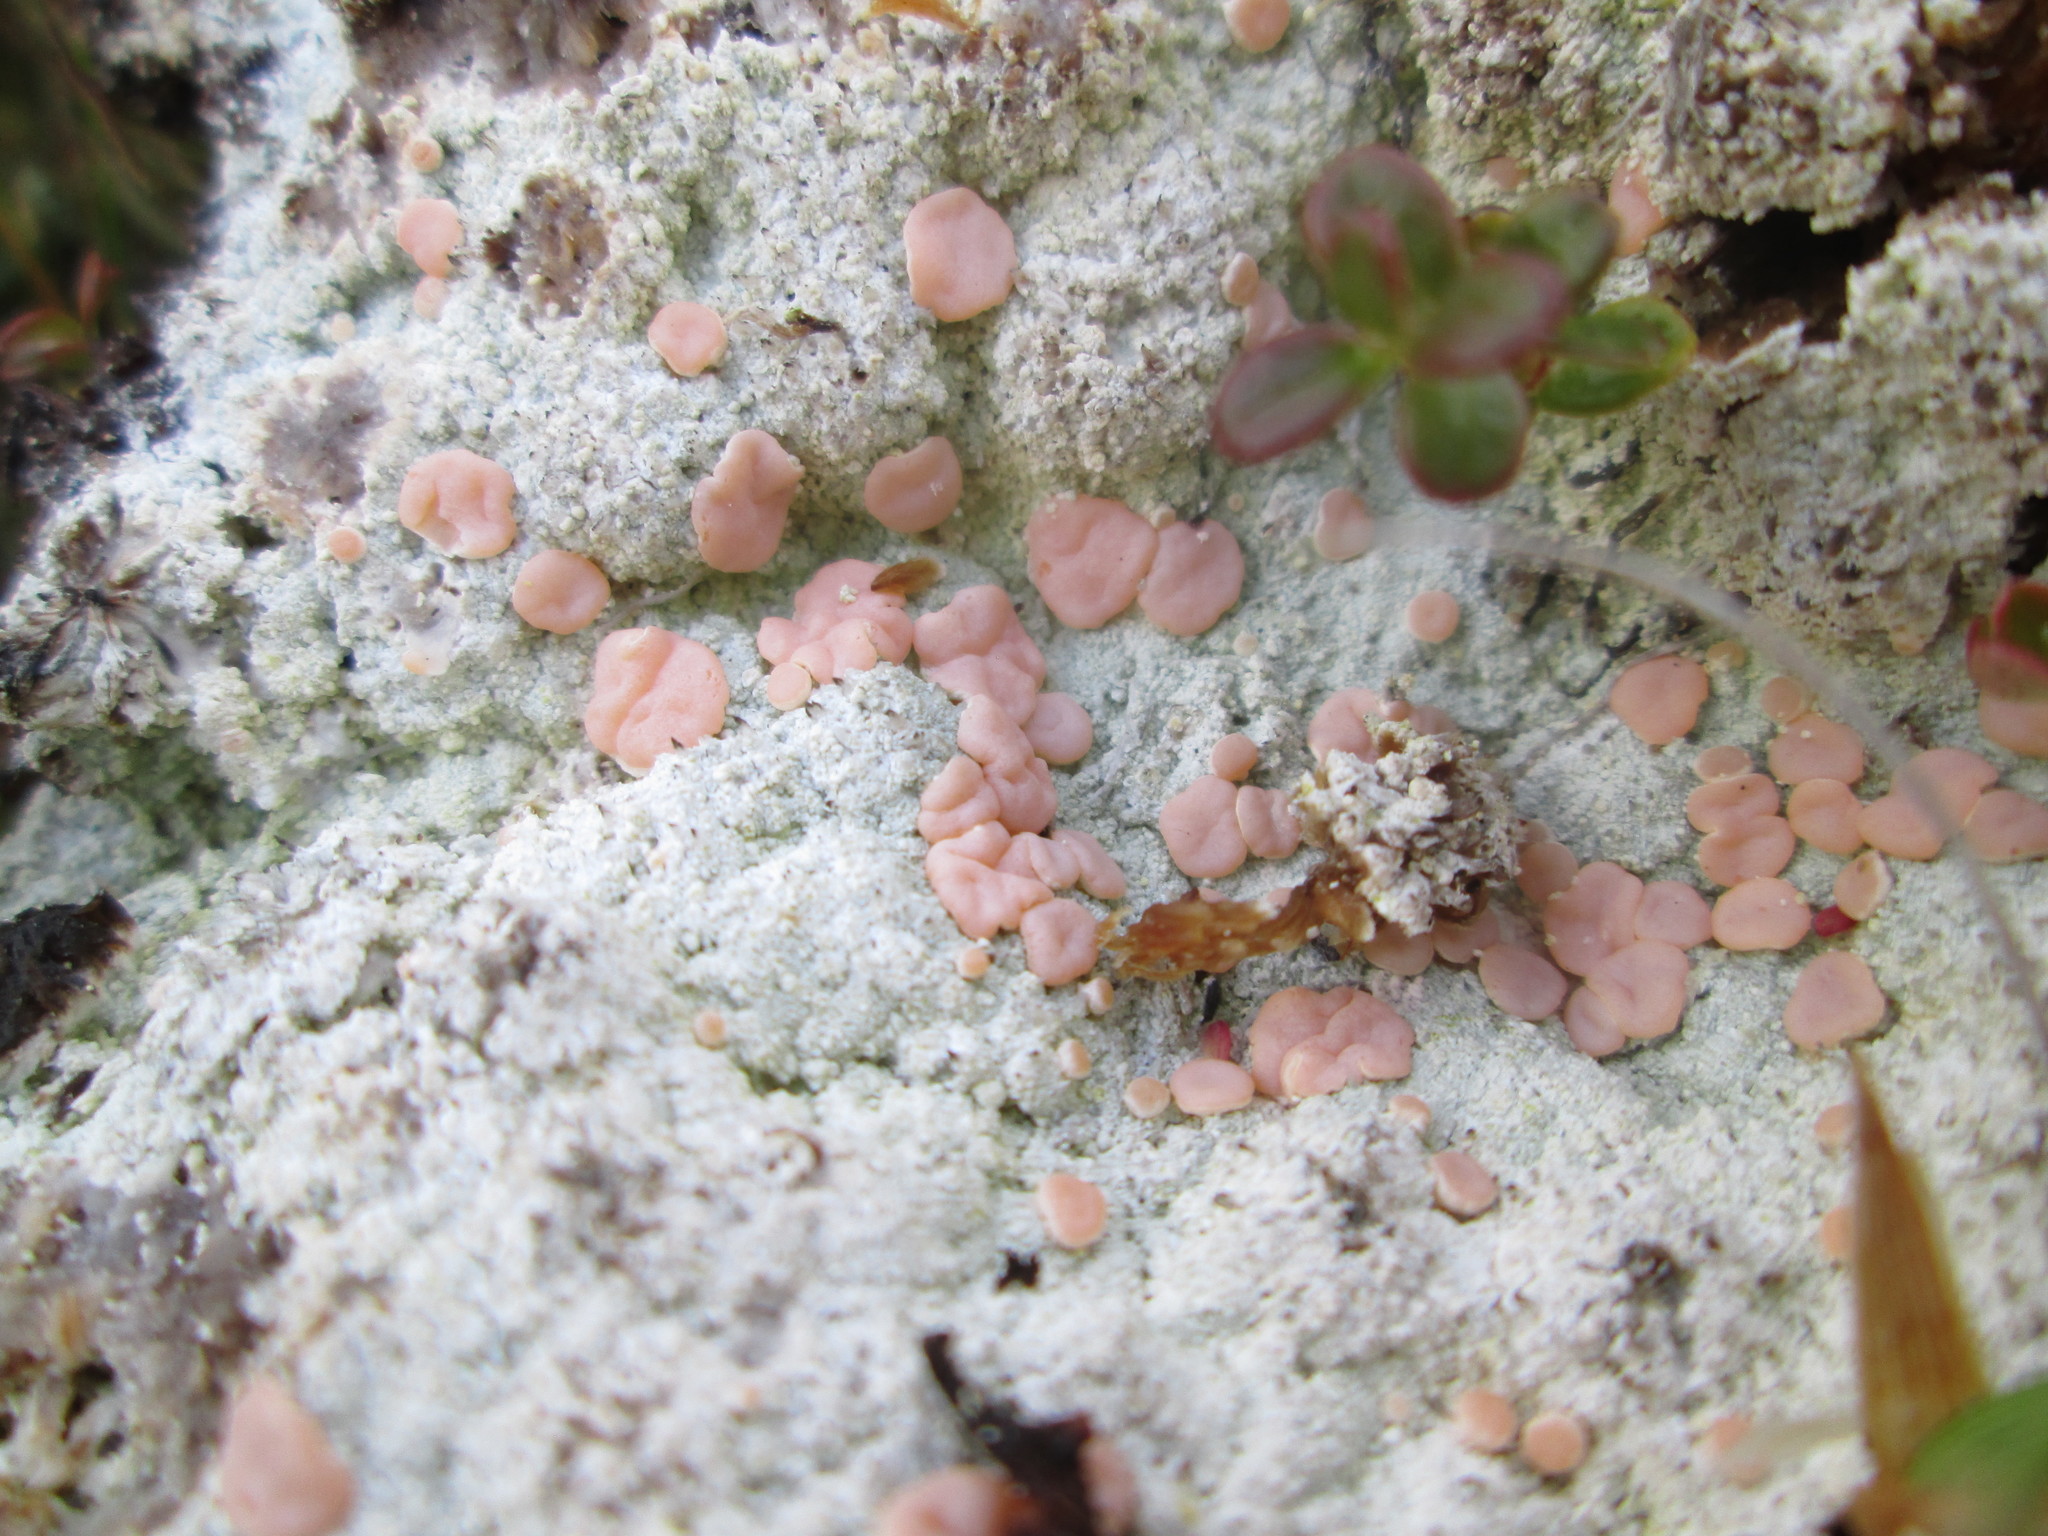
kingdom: Fungi
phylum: Ascomycota
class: Lecanoromycetes
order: Pertusariales
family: Icmadophilaceae
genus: Icmadophila
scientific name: Icmadophila ericetorum
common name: Candy lichen
